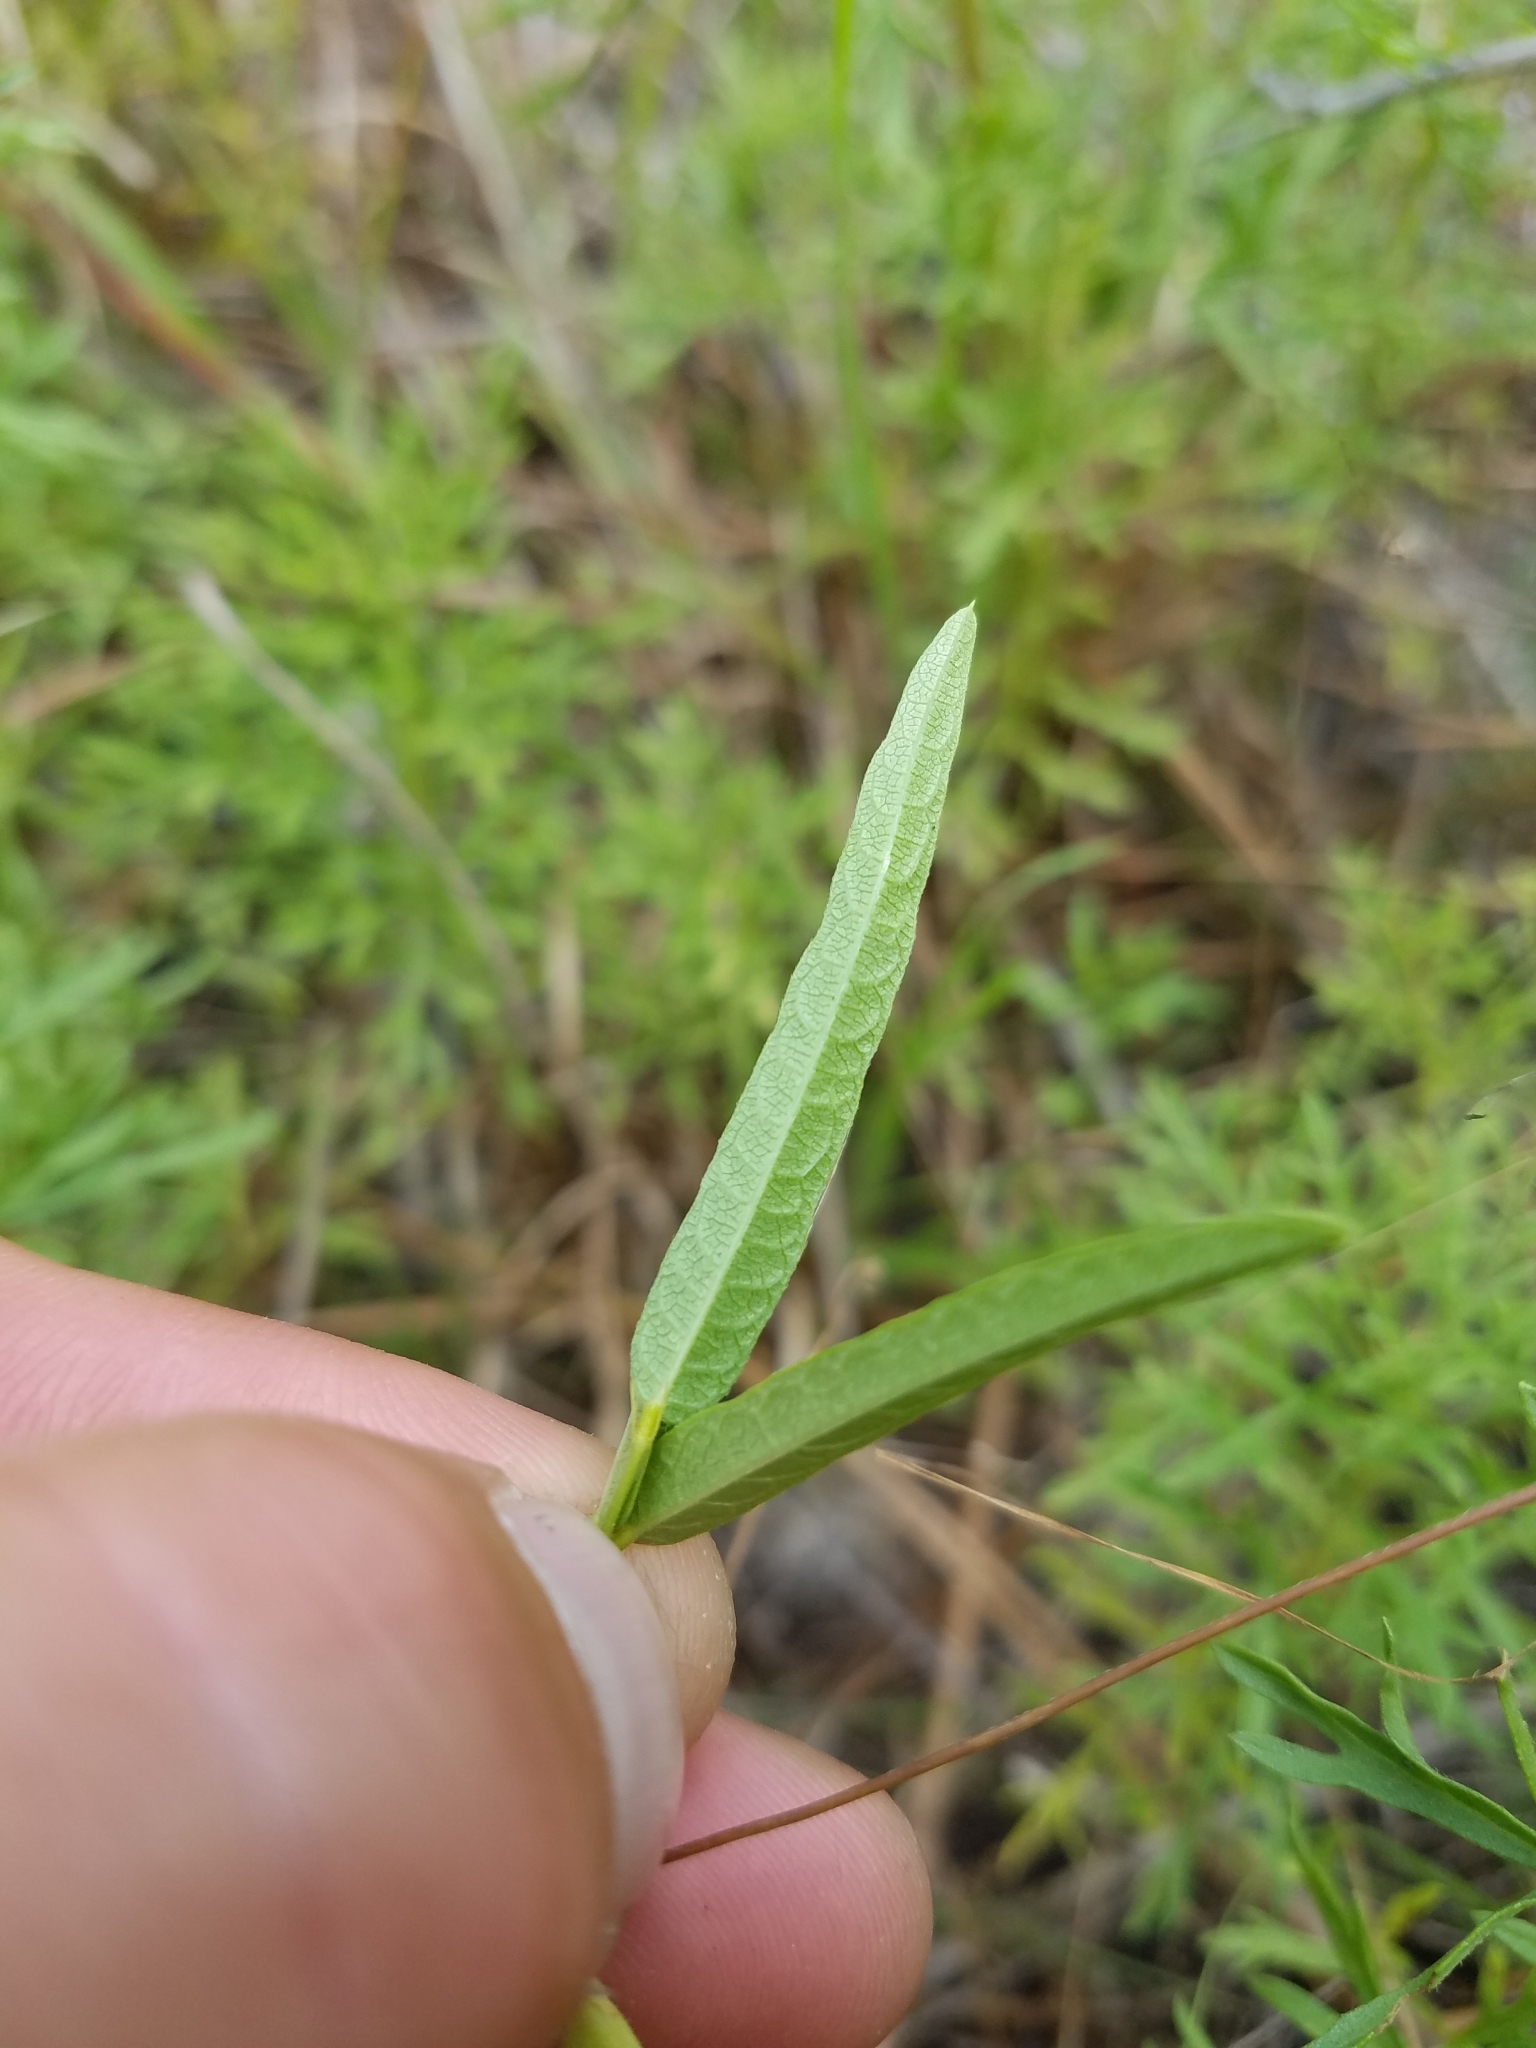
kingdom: Plantae
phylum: Tracheophyta
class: Magnoliopsida
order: Fabales
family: Fabaceae
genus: Centrosema
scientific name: Centrosema virginianum
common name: Butterfly-pea
